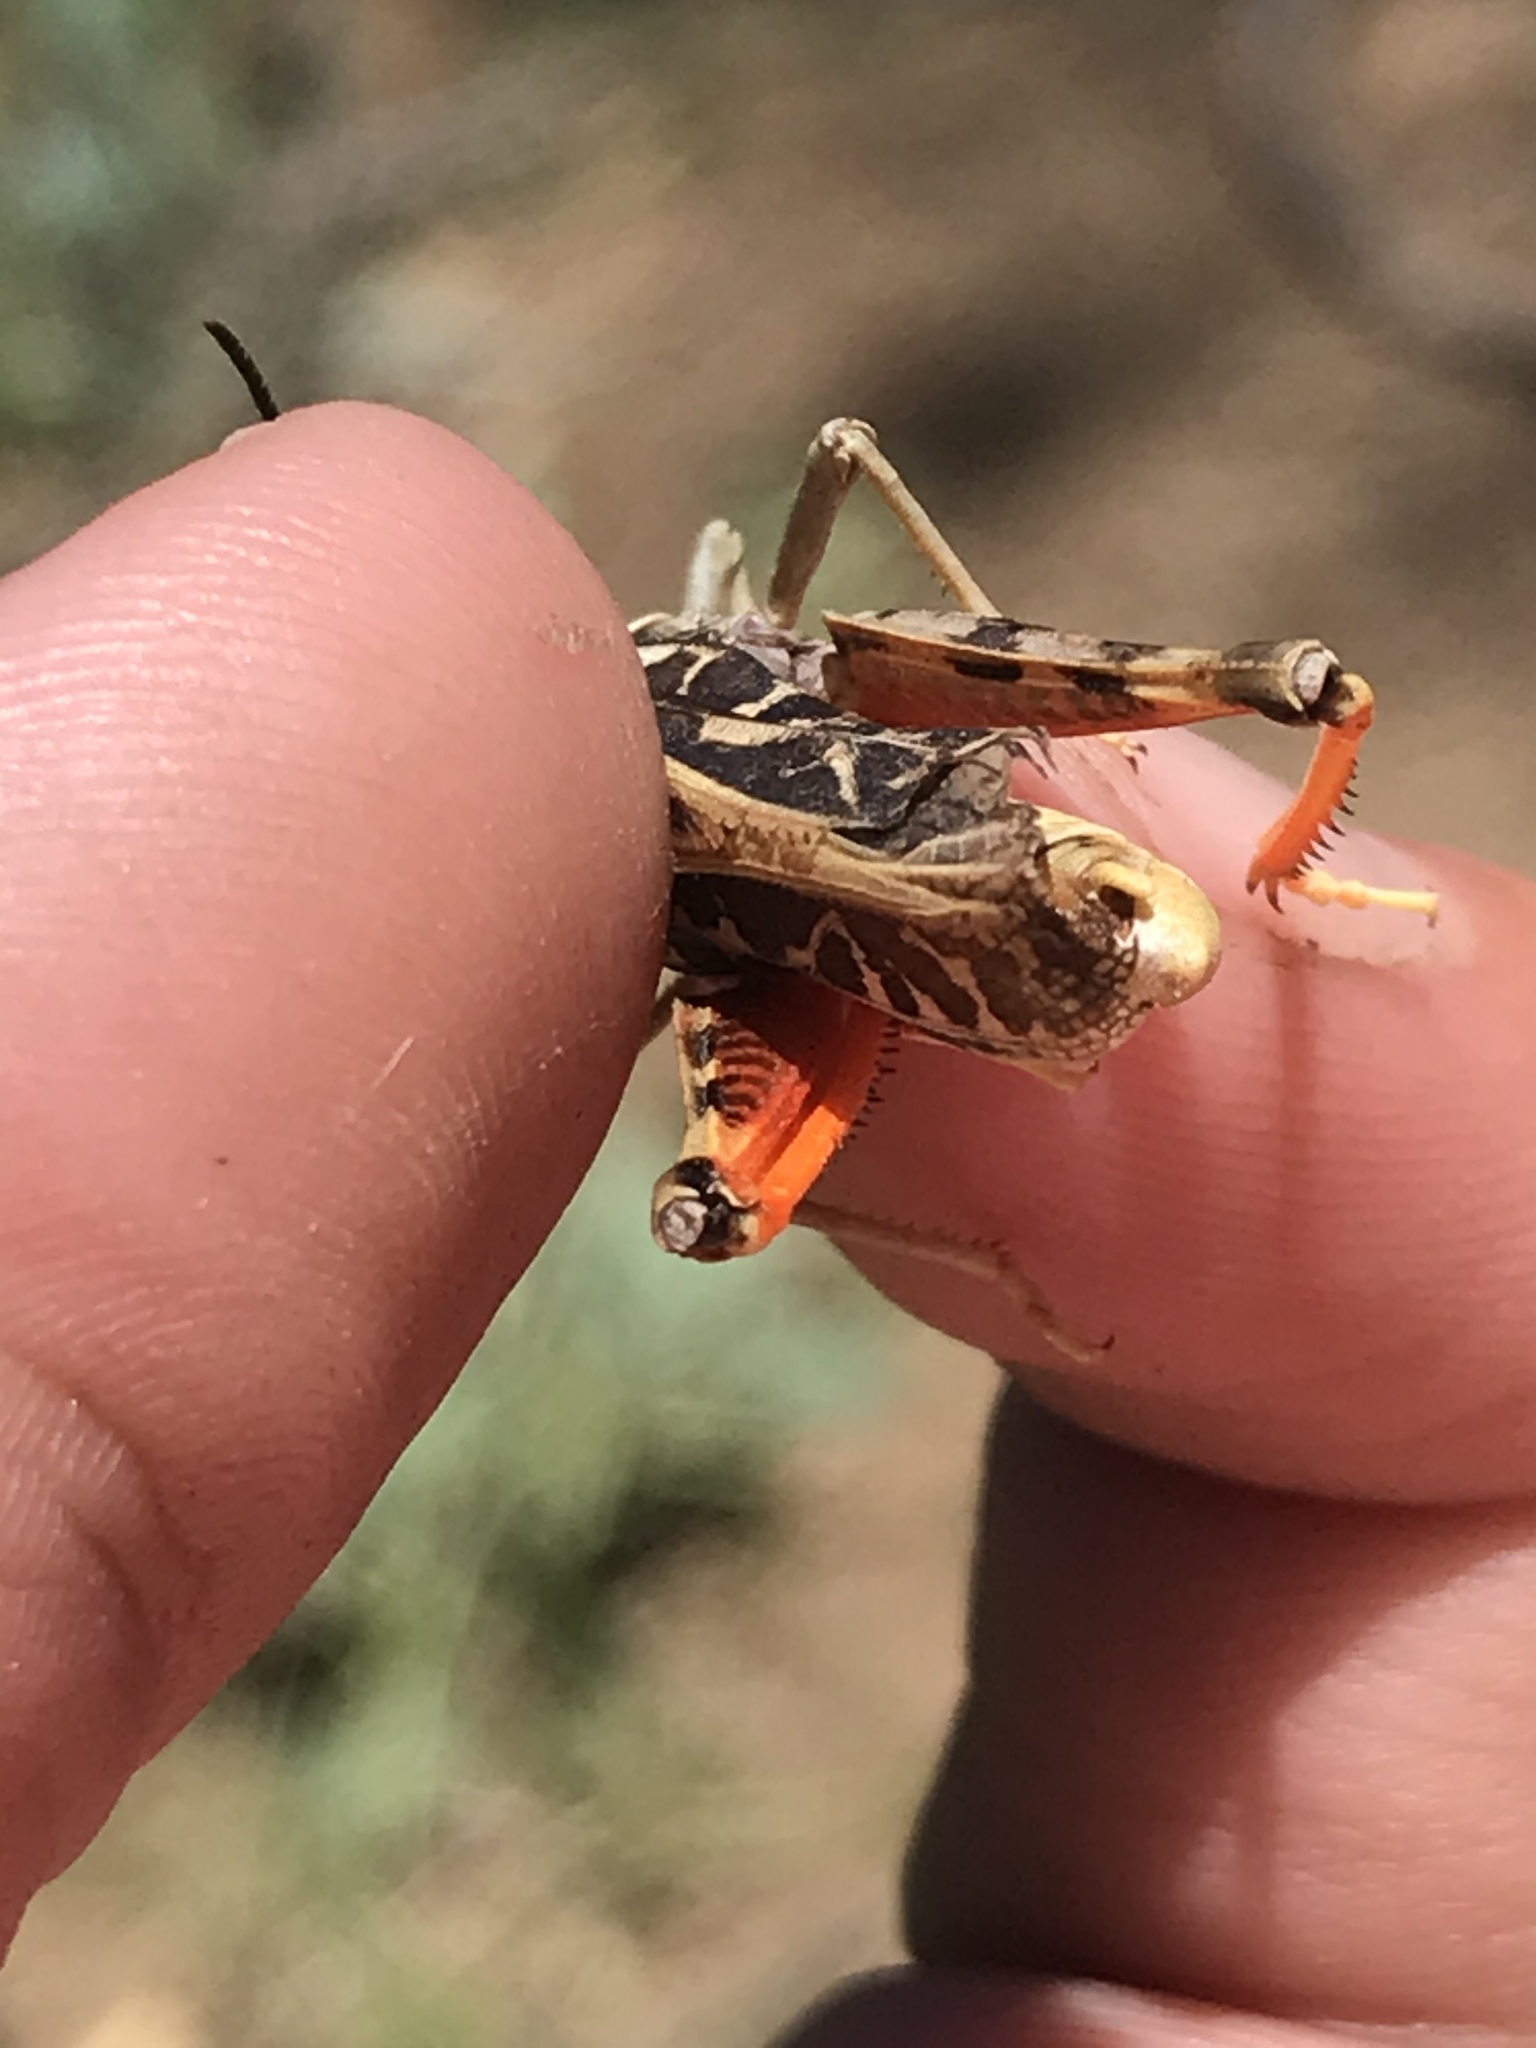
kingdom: Animalia
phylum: Arthropoda
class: Insecta
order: Orthoptera
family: Acrididae
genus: Xanthippus
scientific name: Xanthippus corallipes
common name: Redshanked grasshopper
